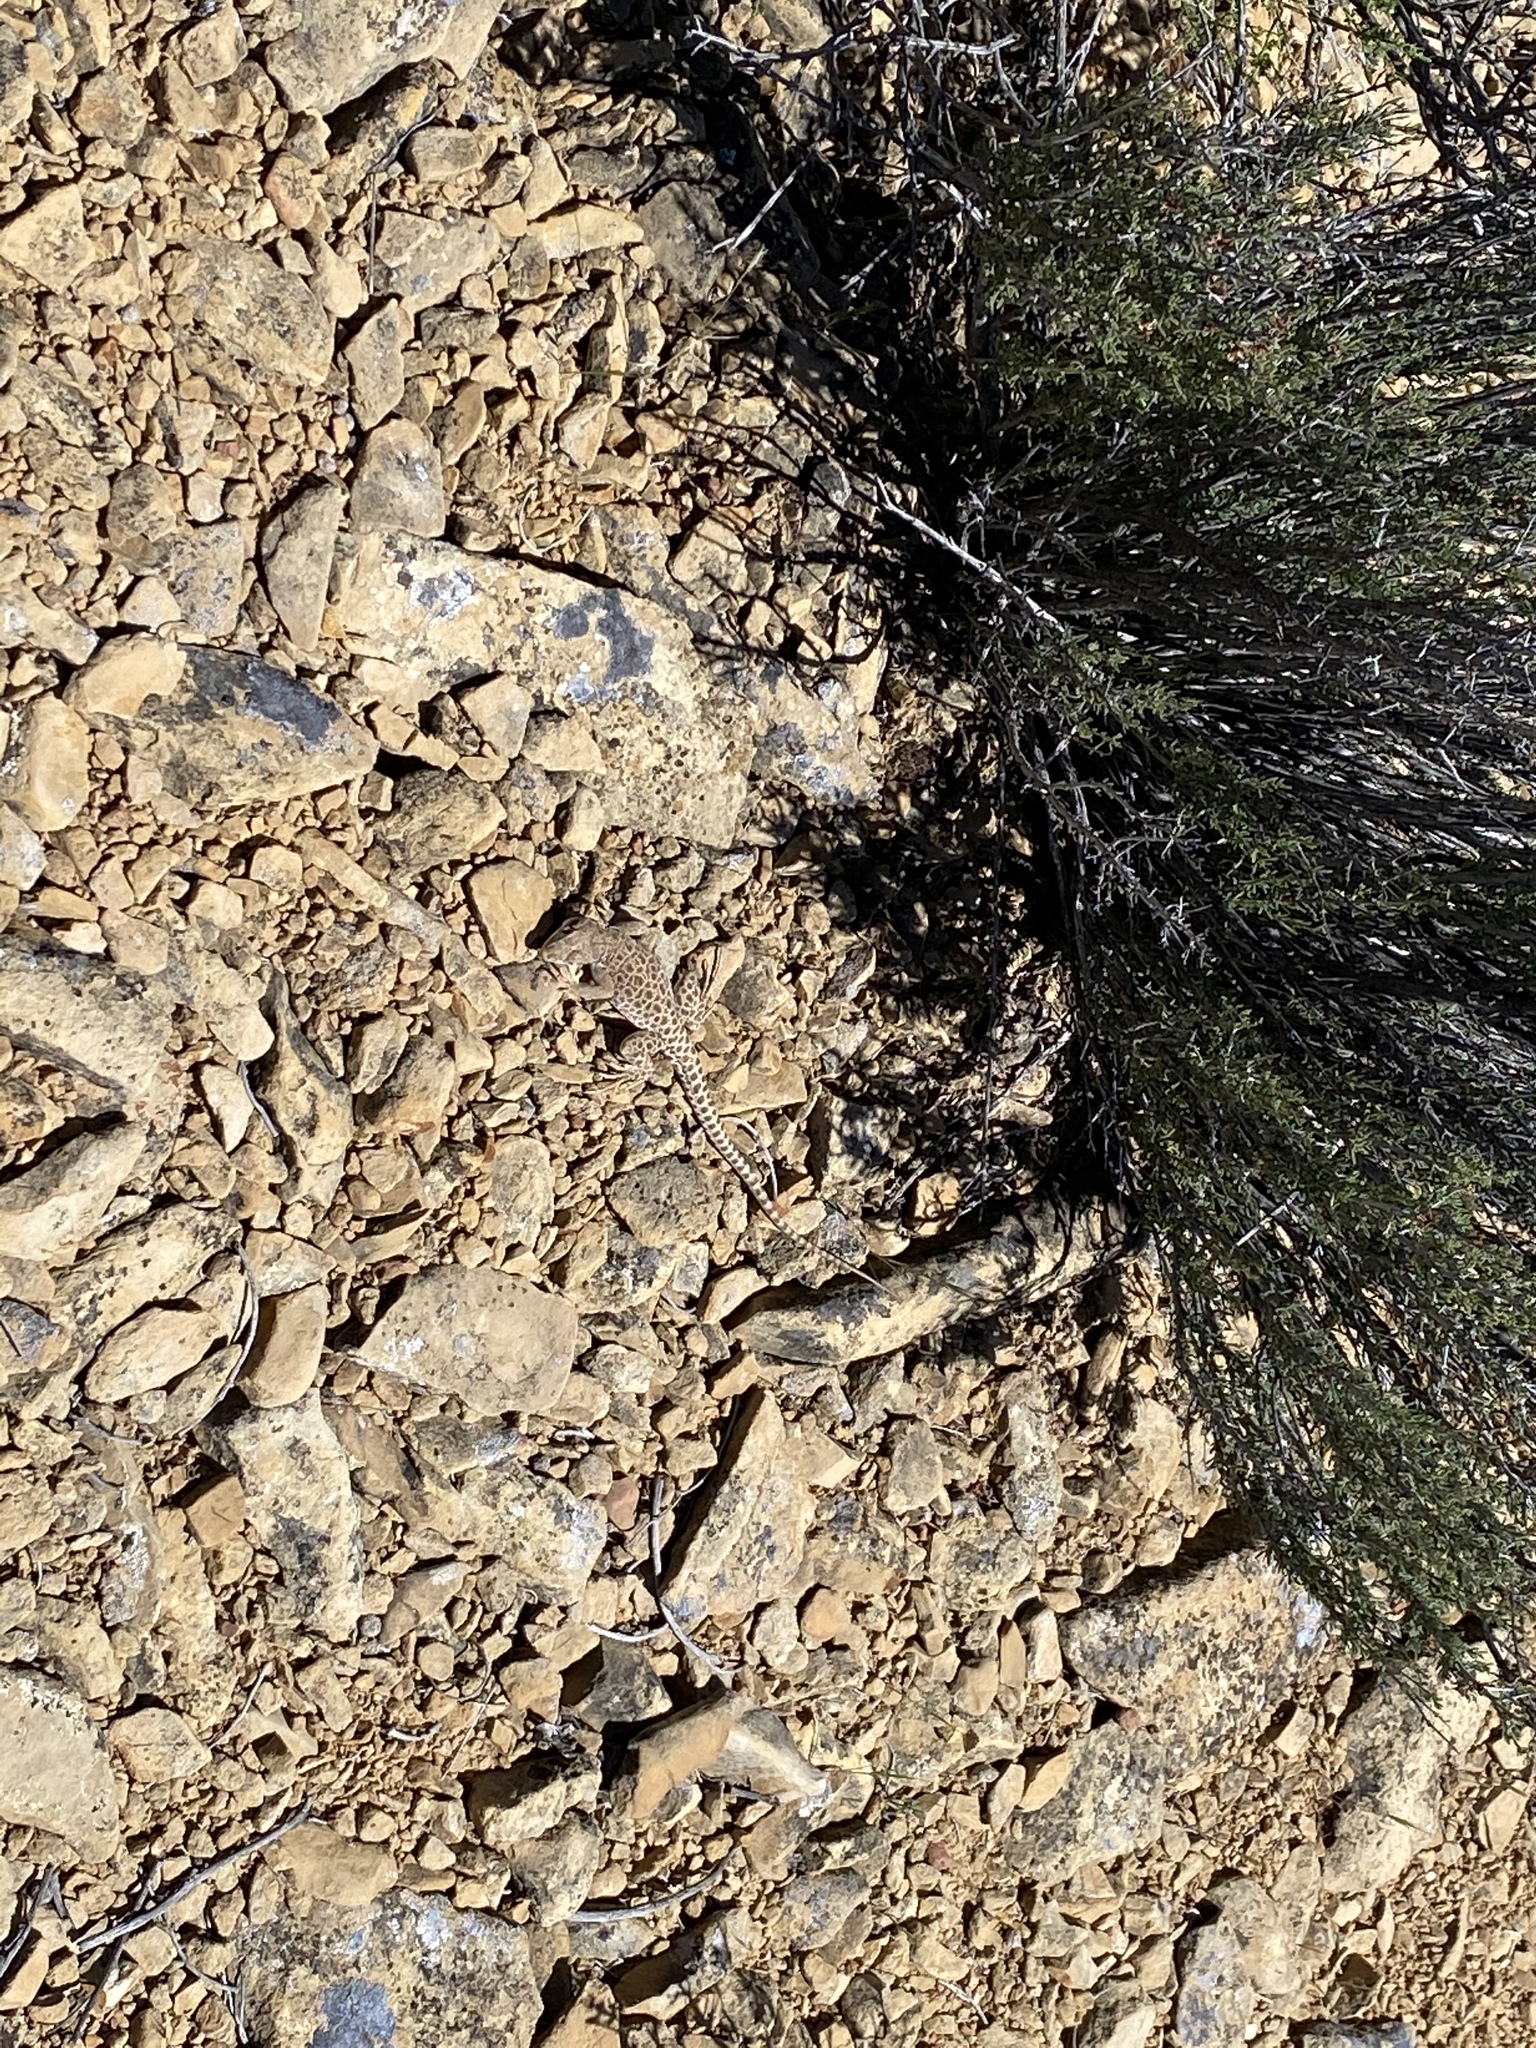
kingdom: Animalia
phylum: Chordata
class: Squamata
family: Crotaphytidae
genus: Gambelia
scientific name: Gambelia wislizenii
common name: Longnose leopard lizard
